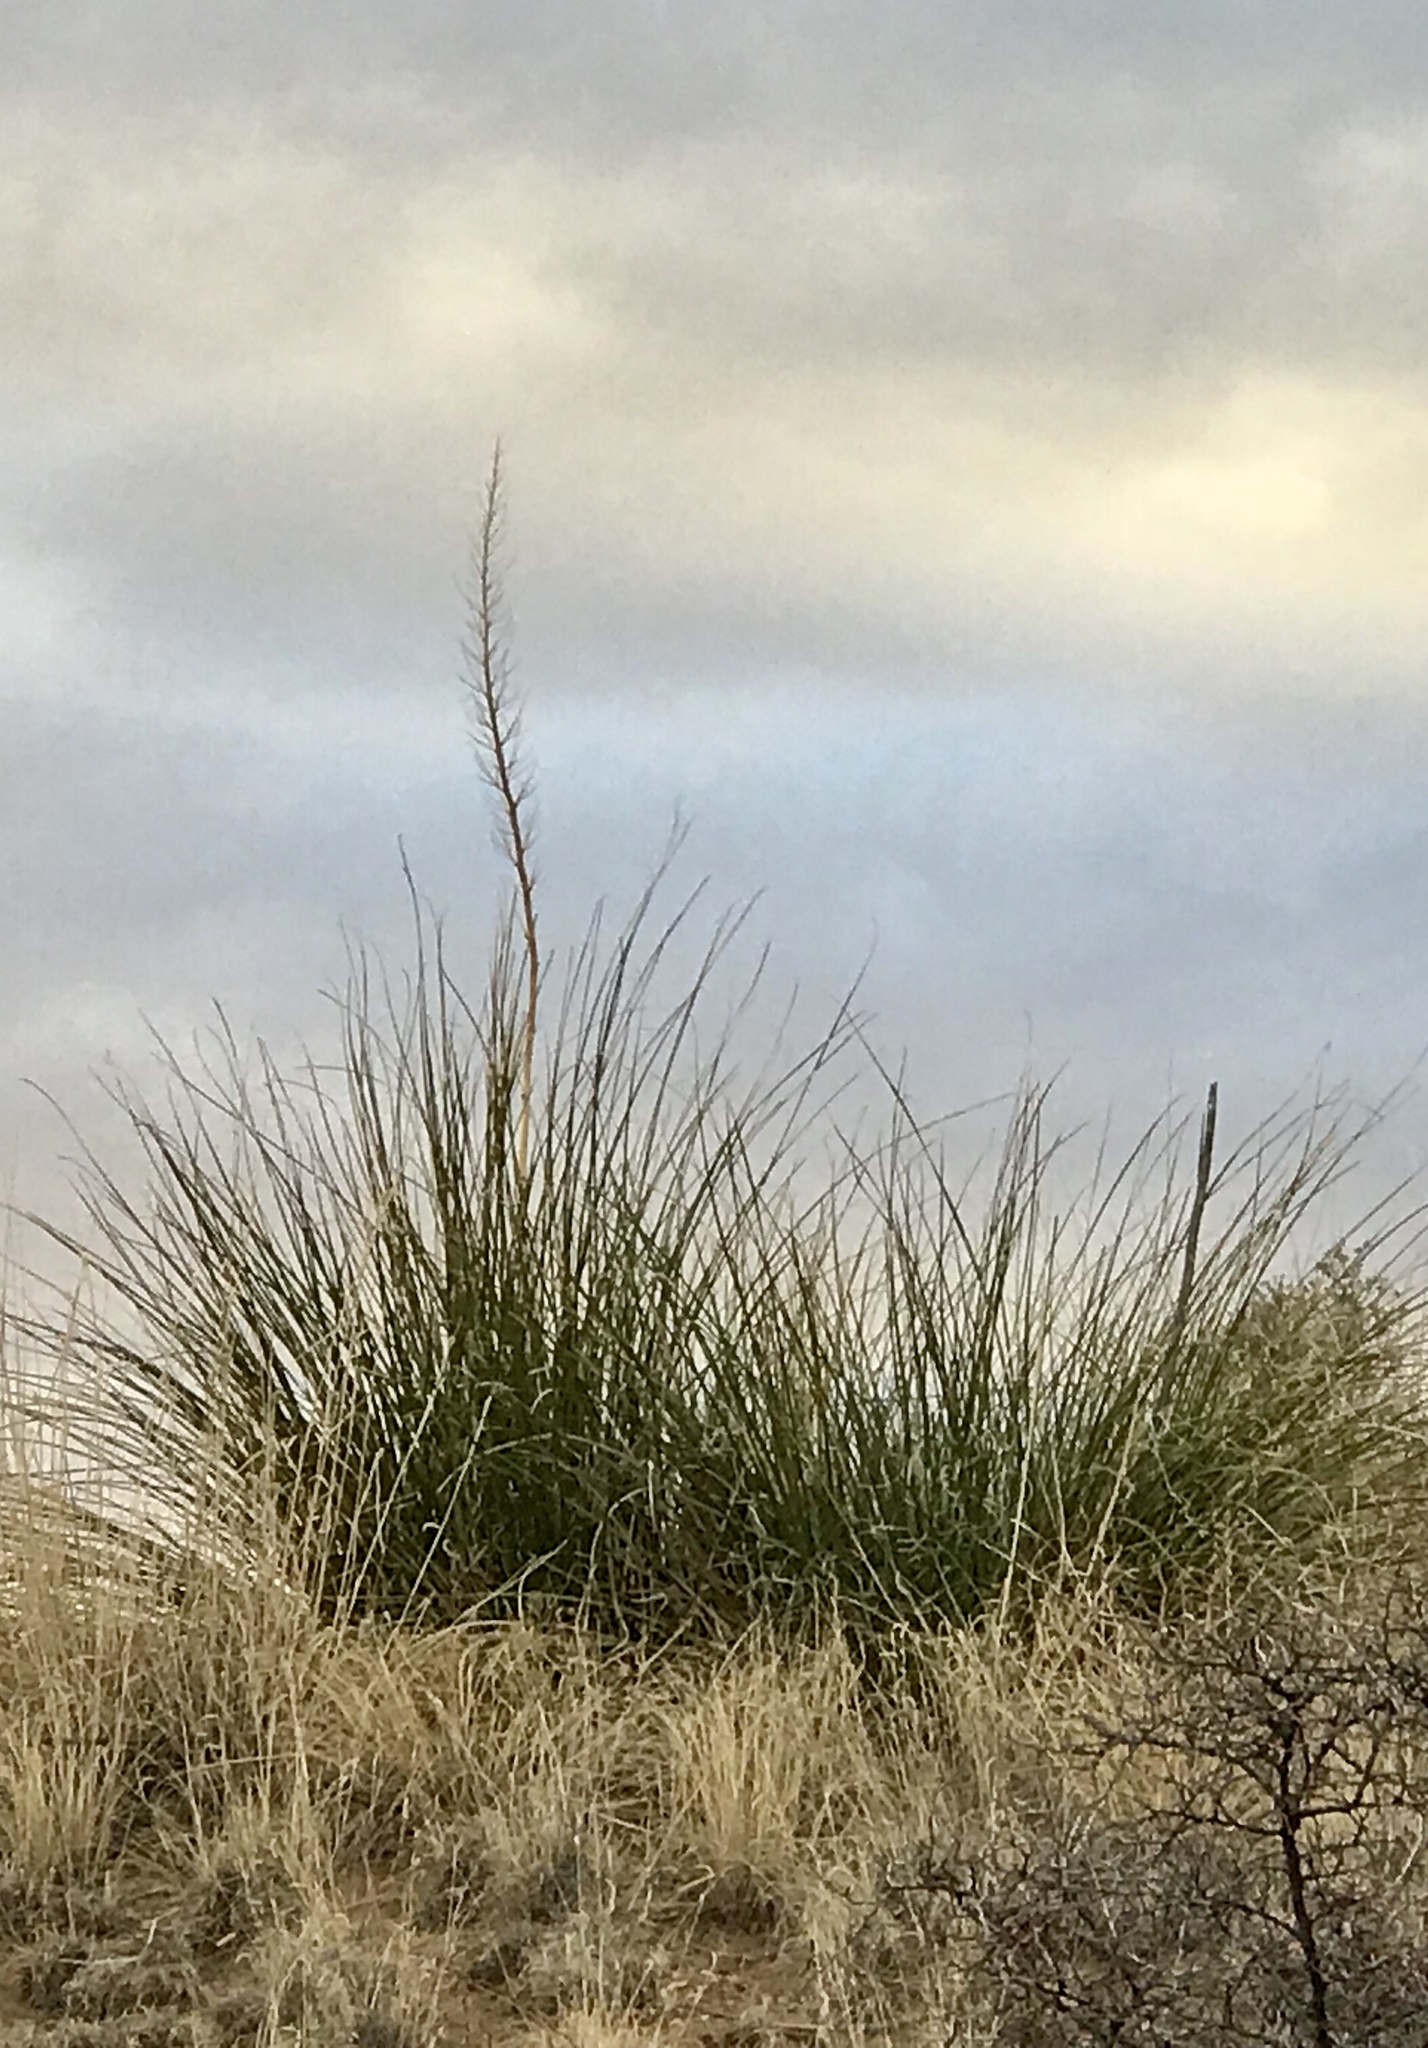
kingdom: Plantae
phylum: Tracheophyta
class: Liliopsida
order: Asparagales
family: Asparagaceae
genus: Nolina
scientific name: Nolina microcarpa
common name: Bear-grass
